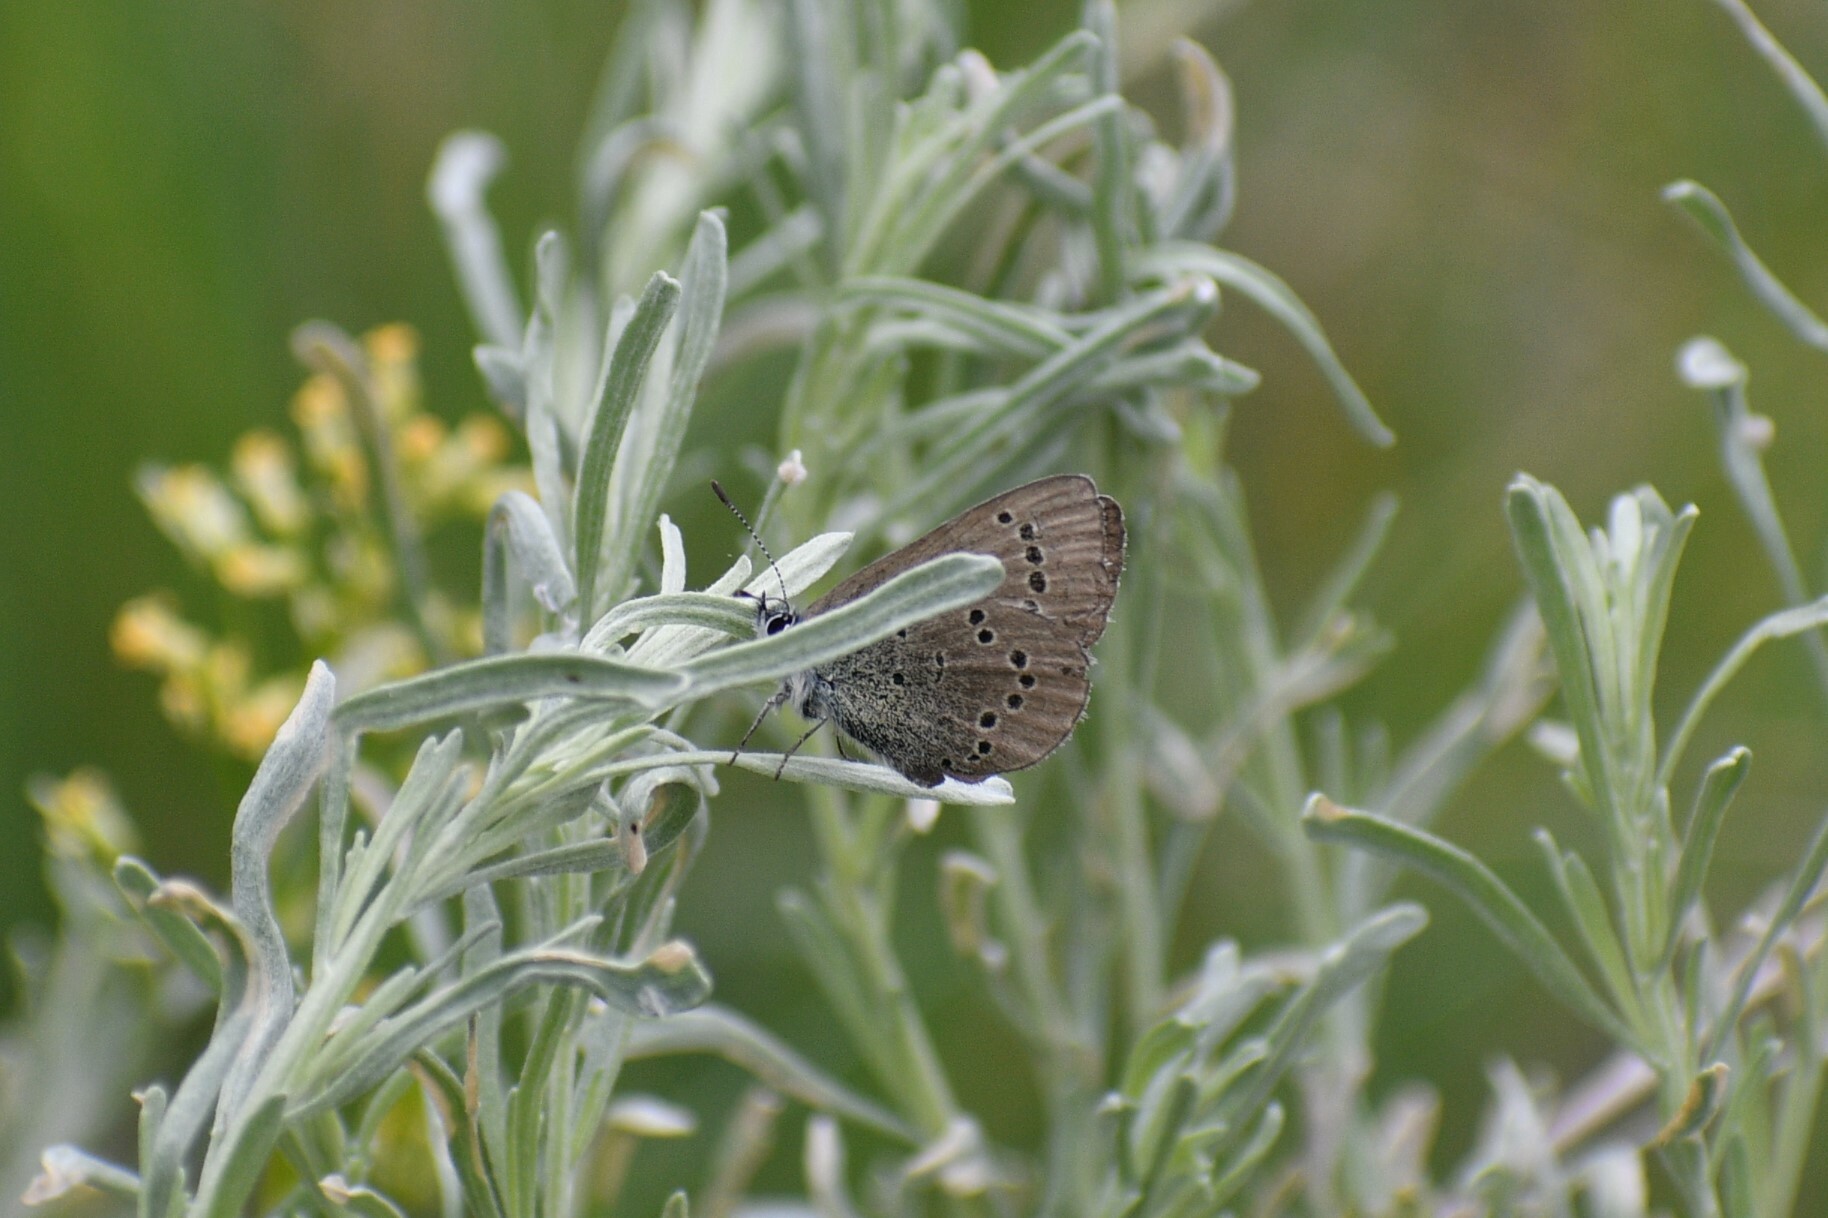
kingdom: Animalia
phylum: Arthropoda
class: Insecta
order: Lepidoptera
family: Lycaenidae
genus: Glaucopsyche
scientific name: Glaucopsyche lygdamus
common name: Silvery blue
